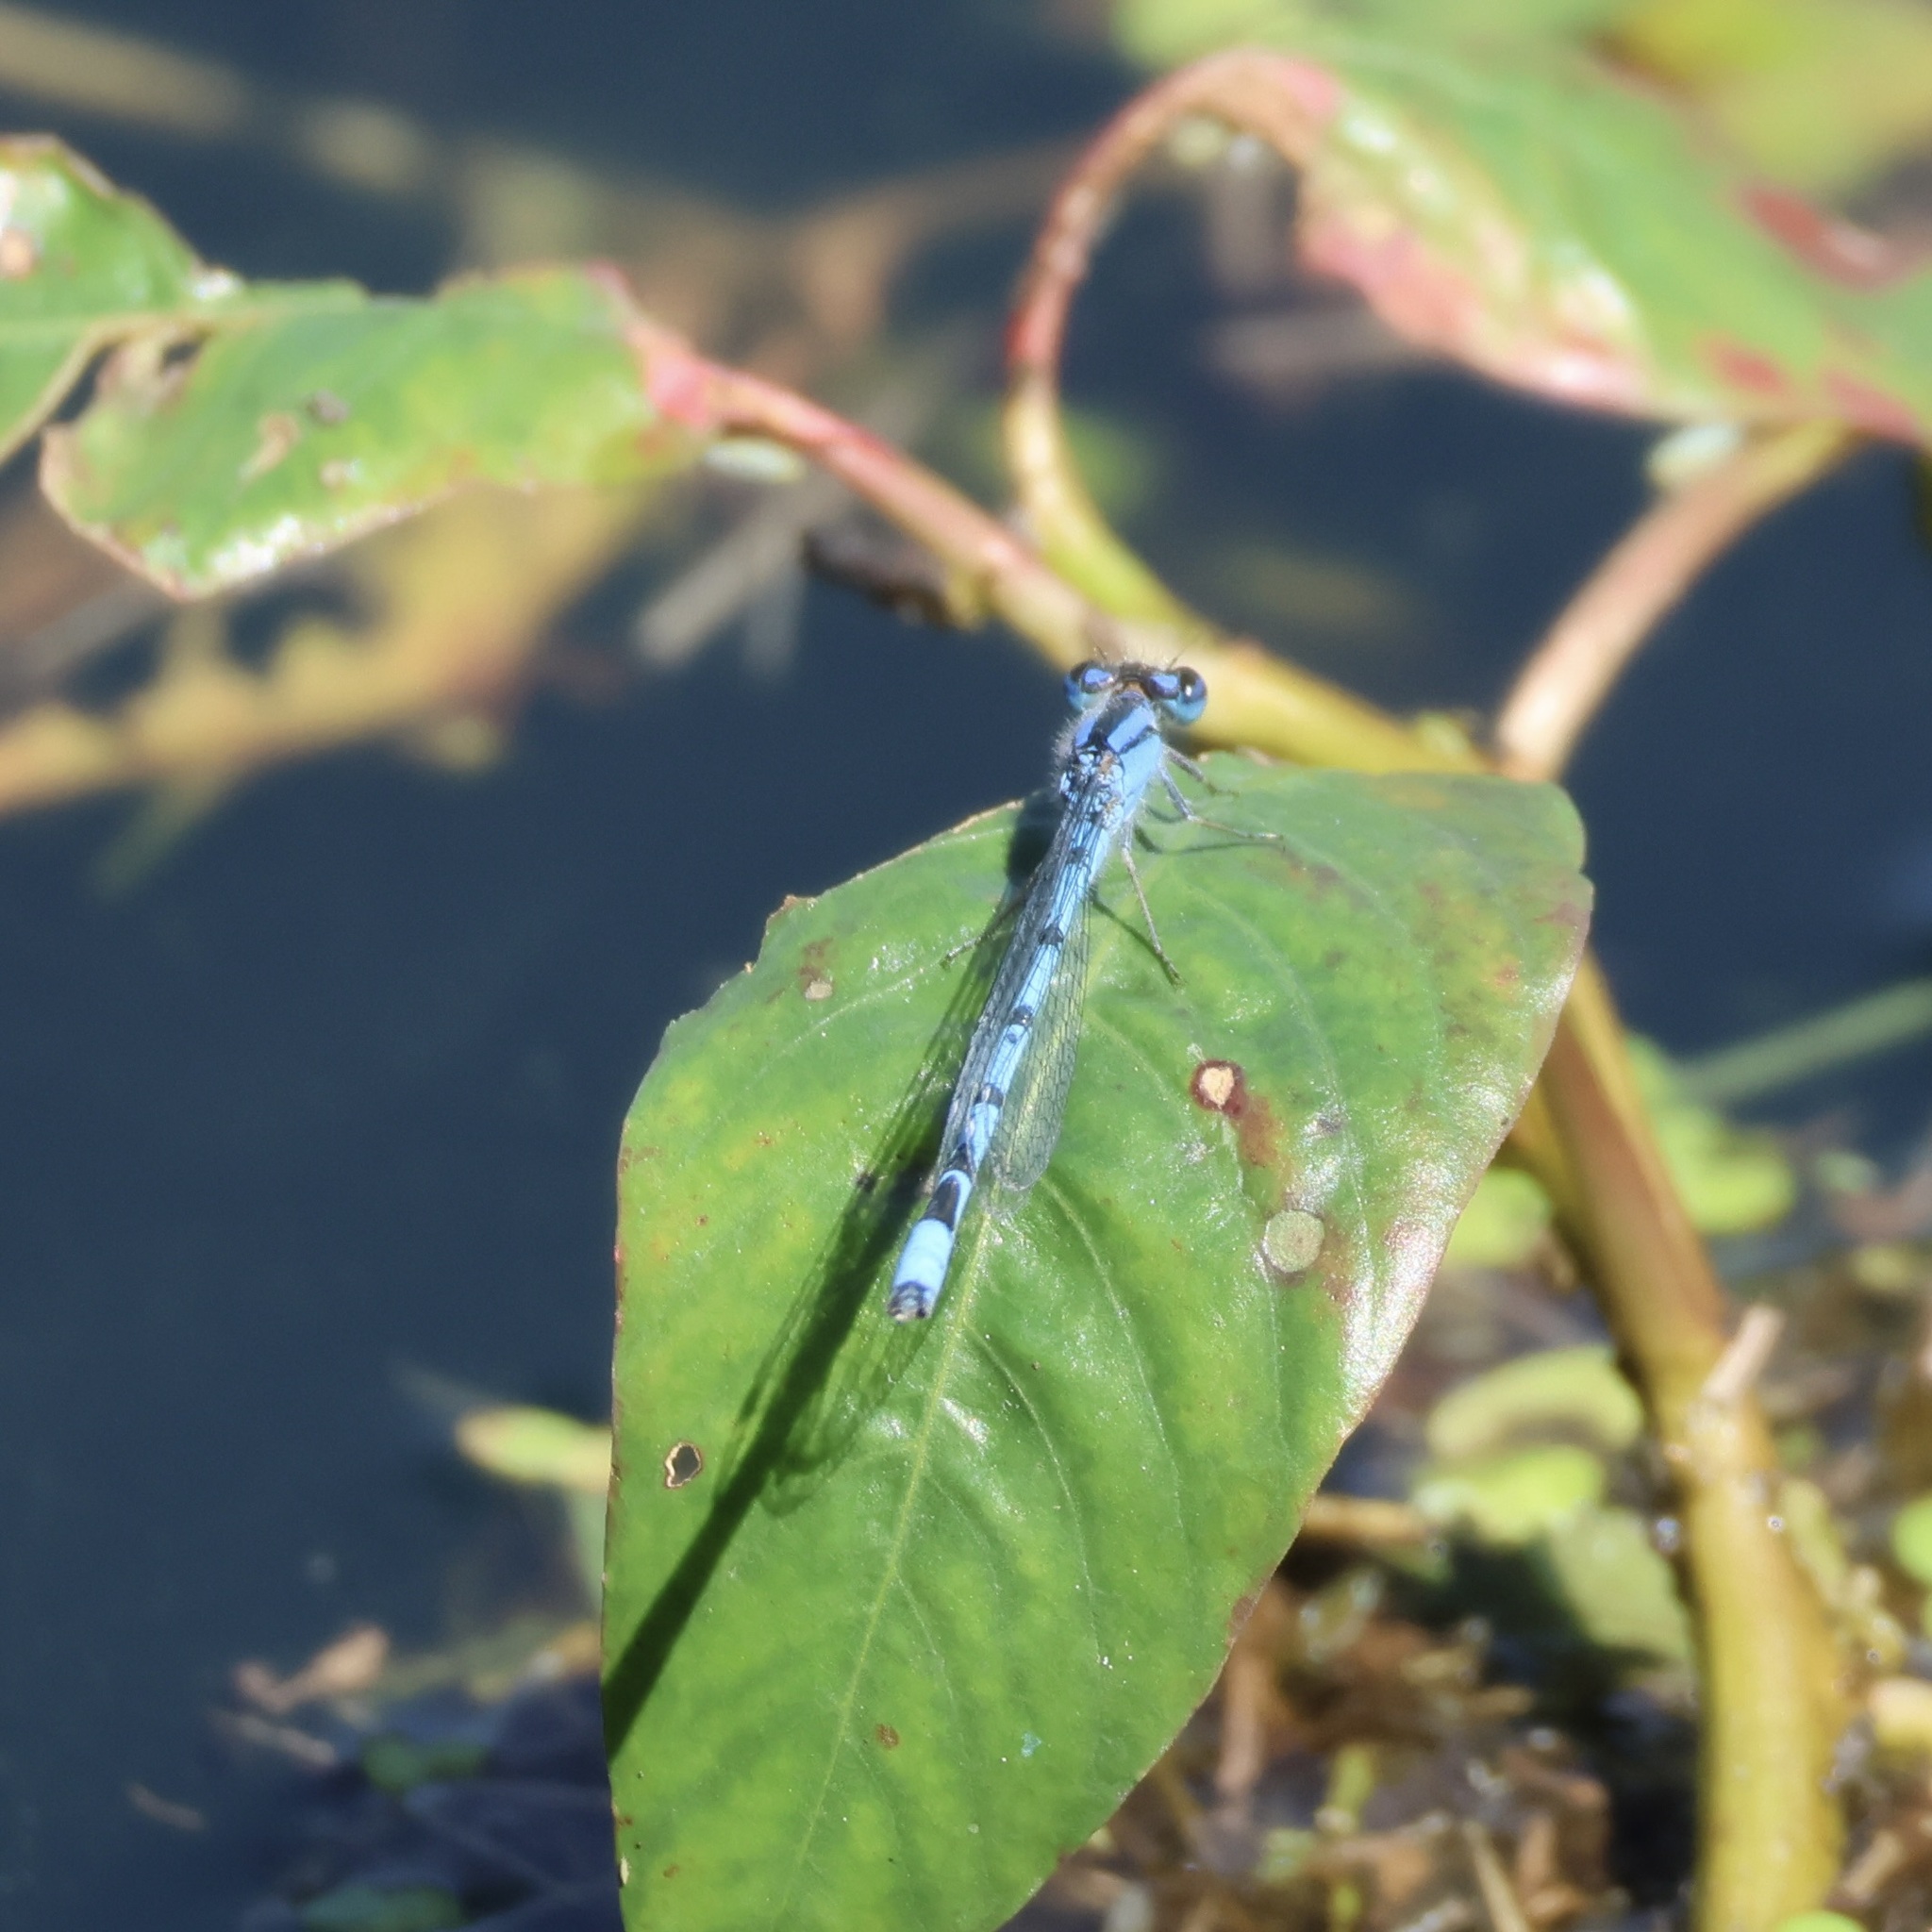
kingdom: Animalia
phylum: Arthropoda
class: Insecta
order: Odonata
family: Coenagrionidae
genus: Enallagma
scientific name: Enallagma civile
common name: Damselfly
